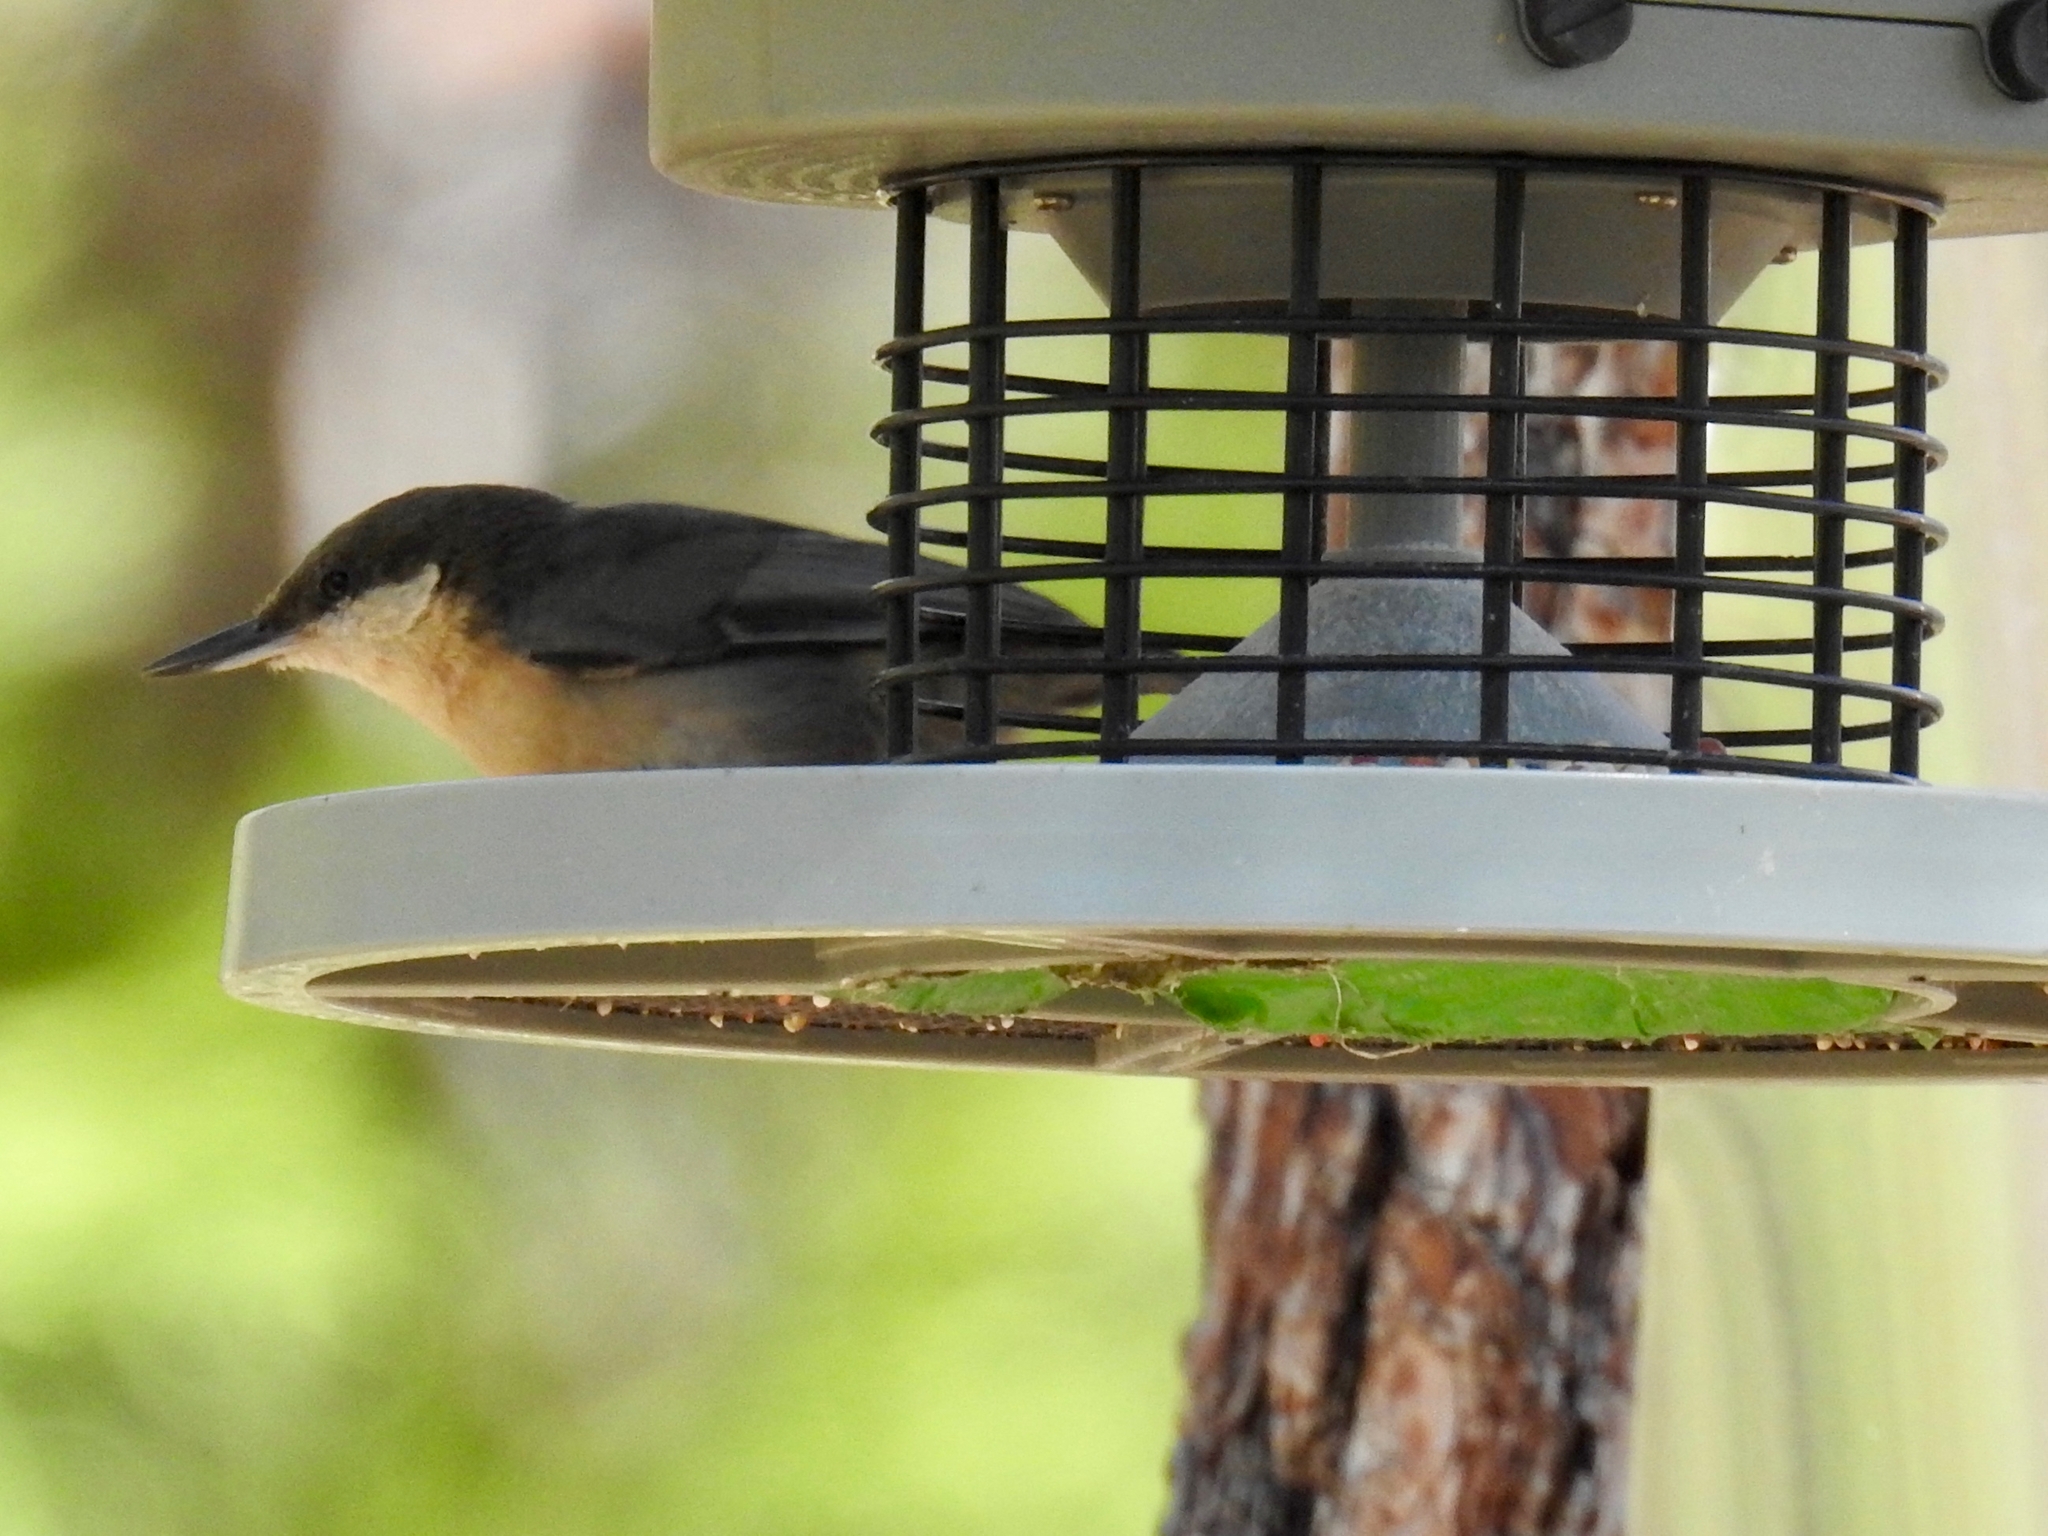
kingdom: Animalia
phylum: Chordata
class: Aves
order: Passeriformes
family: Sittidae
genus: Sitta
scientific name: Sitta pygmaea
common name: Pygmy nuthatch
